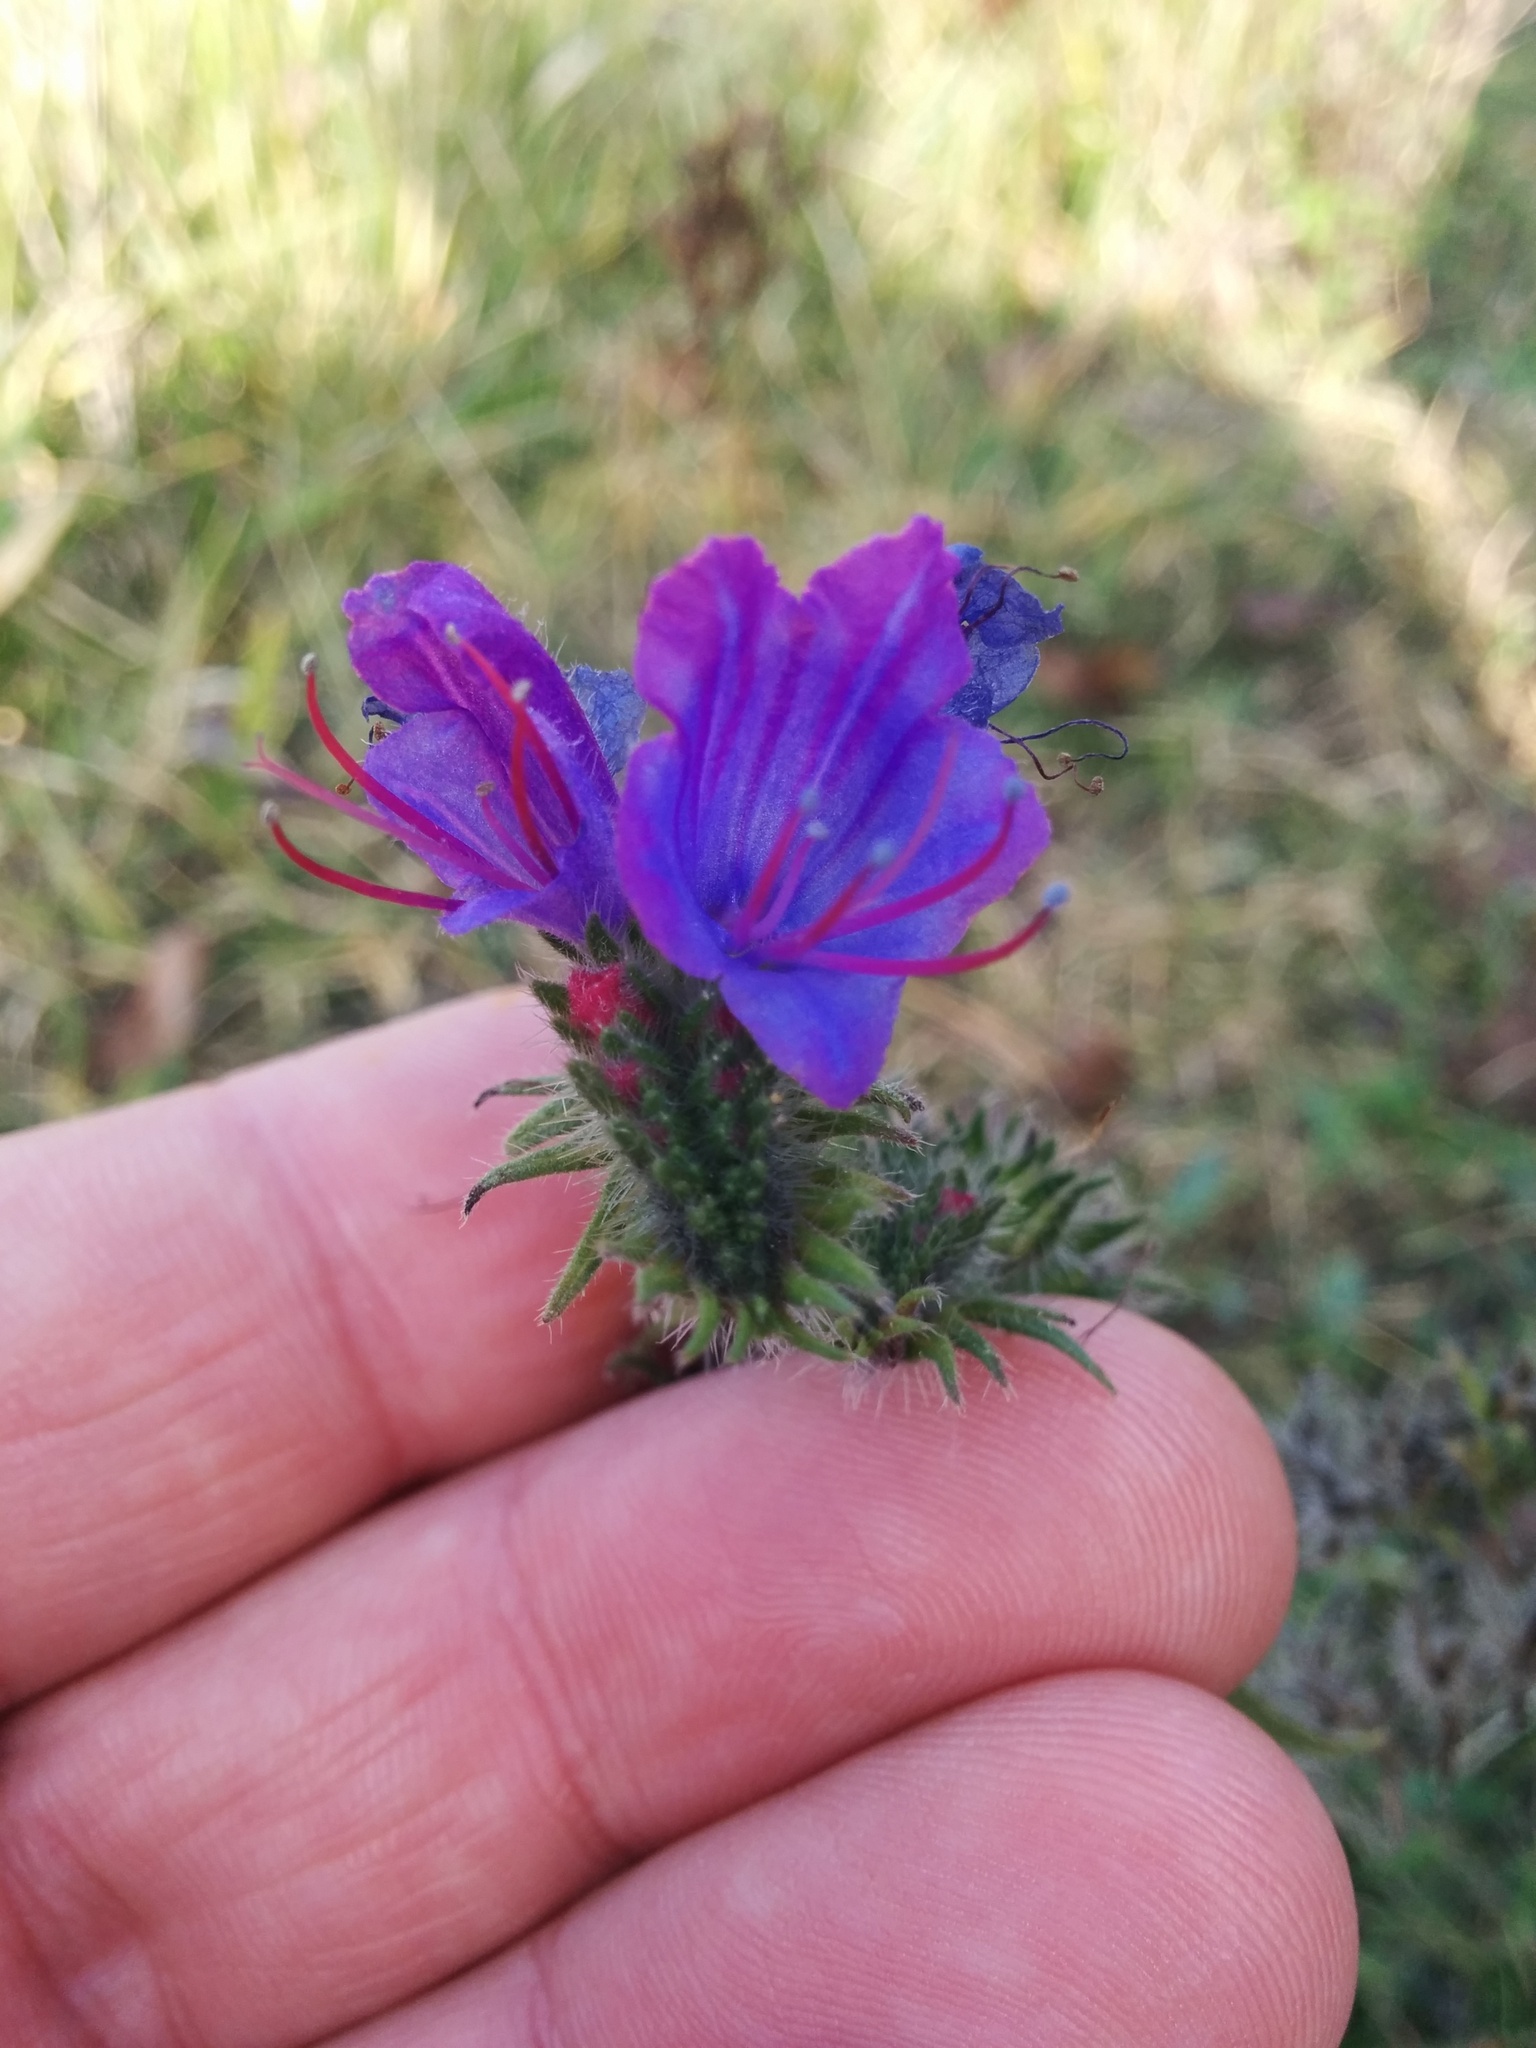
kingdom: Plantae
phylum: Tracheophyta
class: Magnoliopsida
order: Boraginales
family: Boraginaceae
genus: Echium
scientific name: Echium vulgare
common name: Common viper's bugloss
